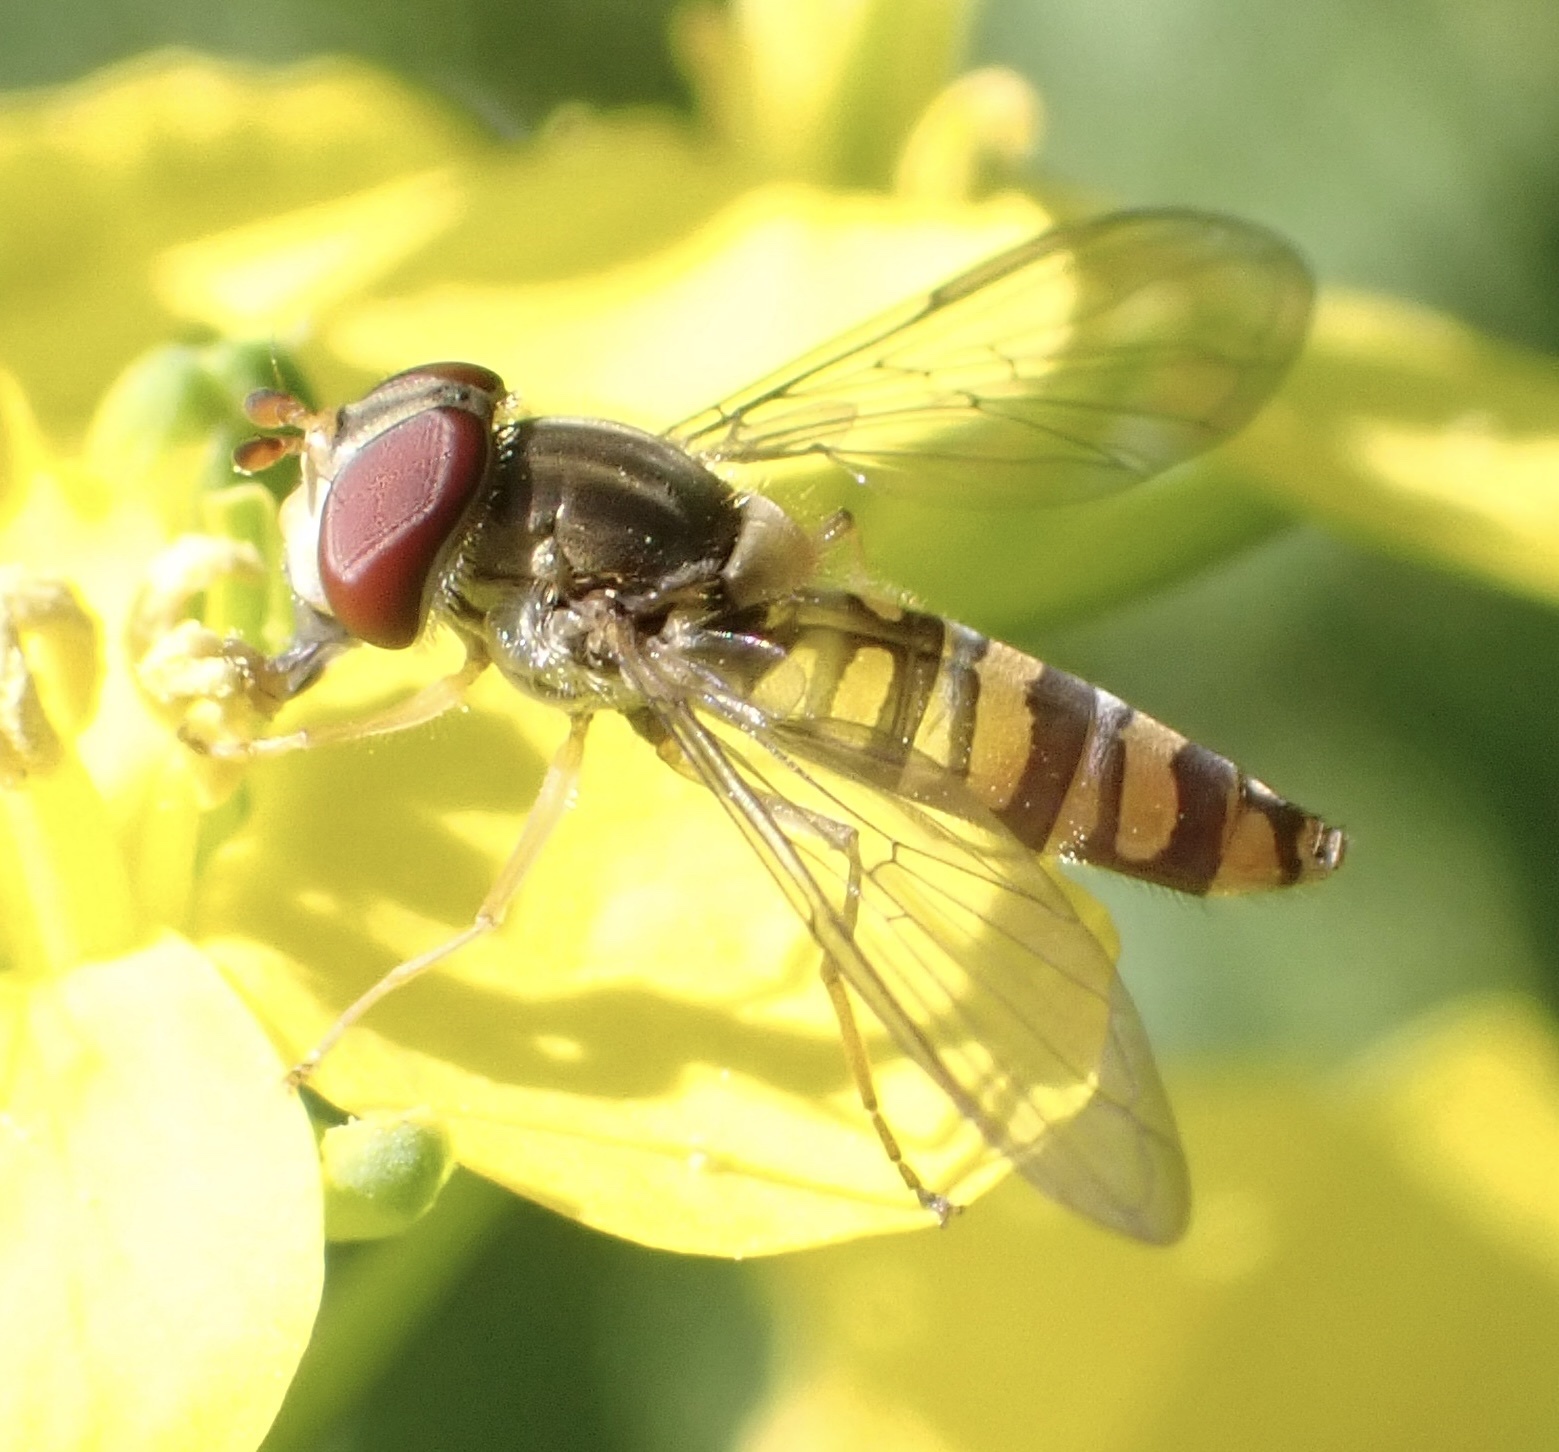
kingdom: Animalia
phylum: Arthropoda
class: Insecta
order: Diptera
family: Syrphidae
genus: Episyrphus
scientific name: Episyrphus balteatus
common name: Marmalade hoverfly
